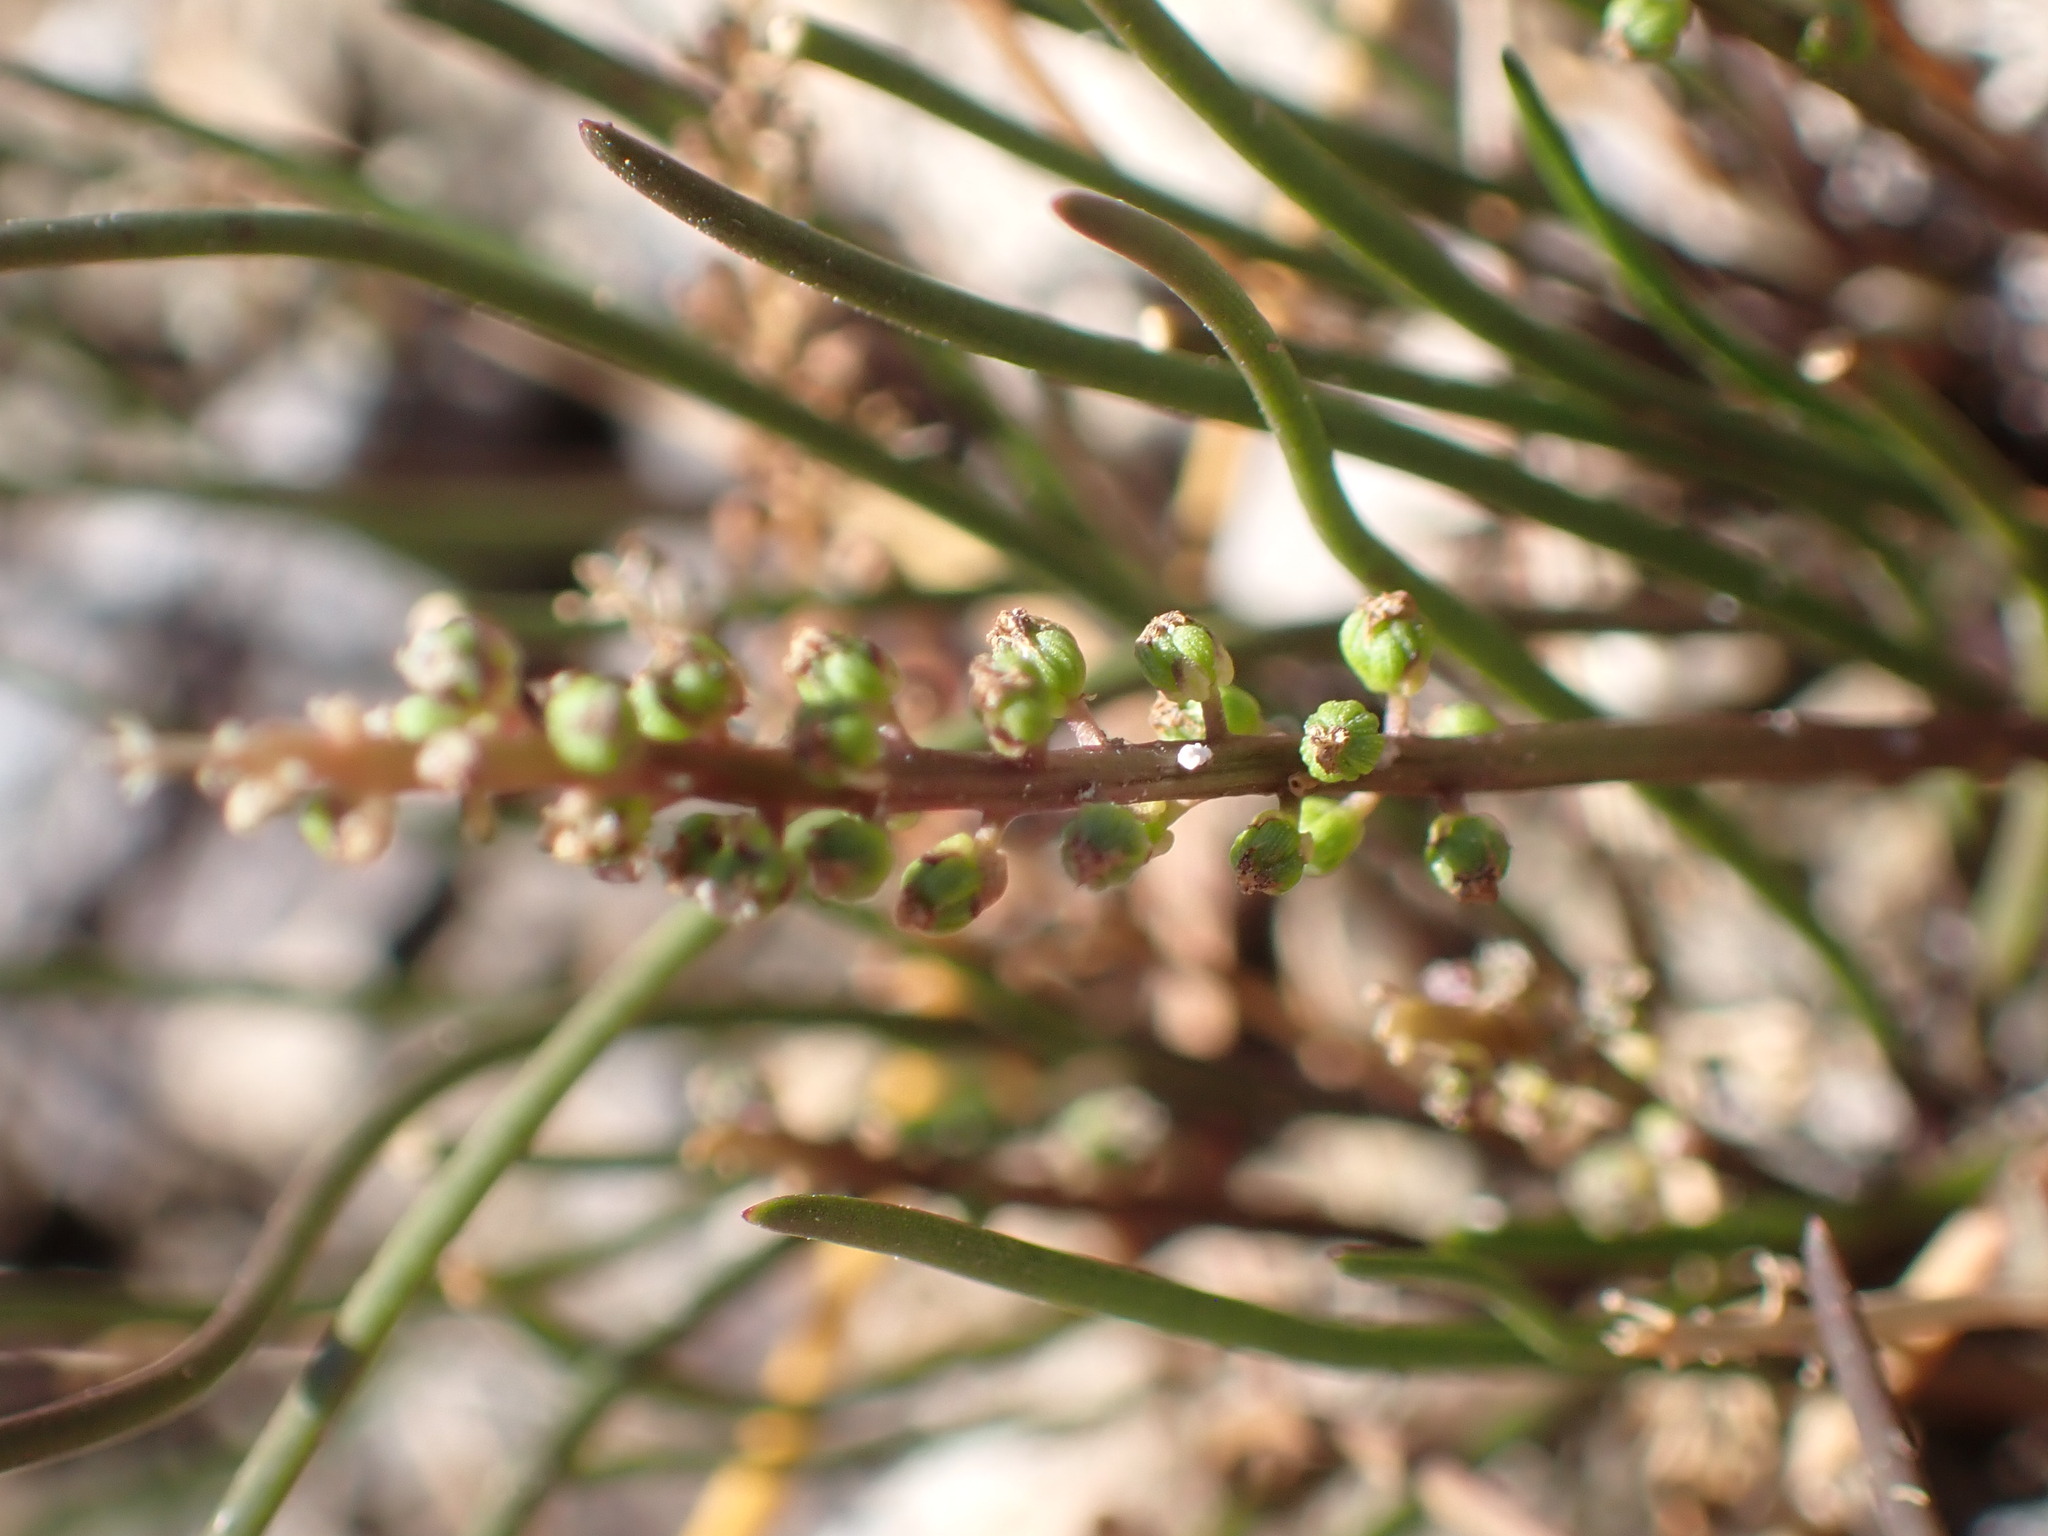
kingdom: Plantae
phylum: Tracheophyta
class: Liliopsida
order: Alismatales
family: Juncaginaceae
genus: Triglochin
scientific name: Triglochin striata
